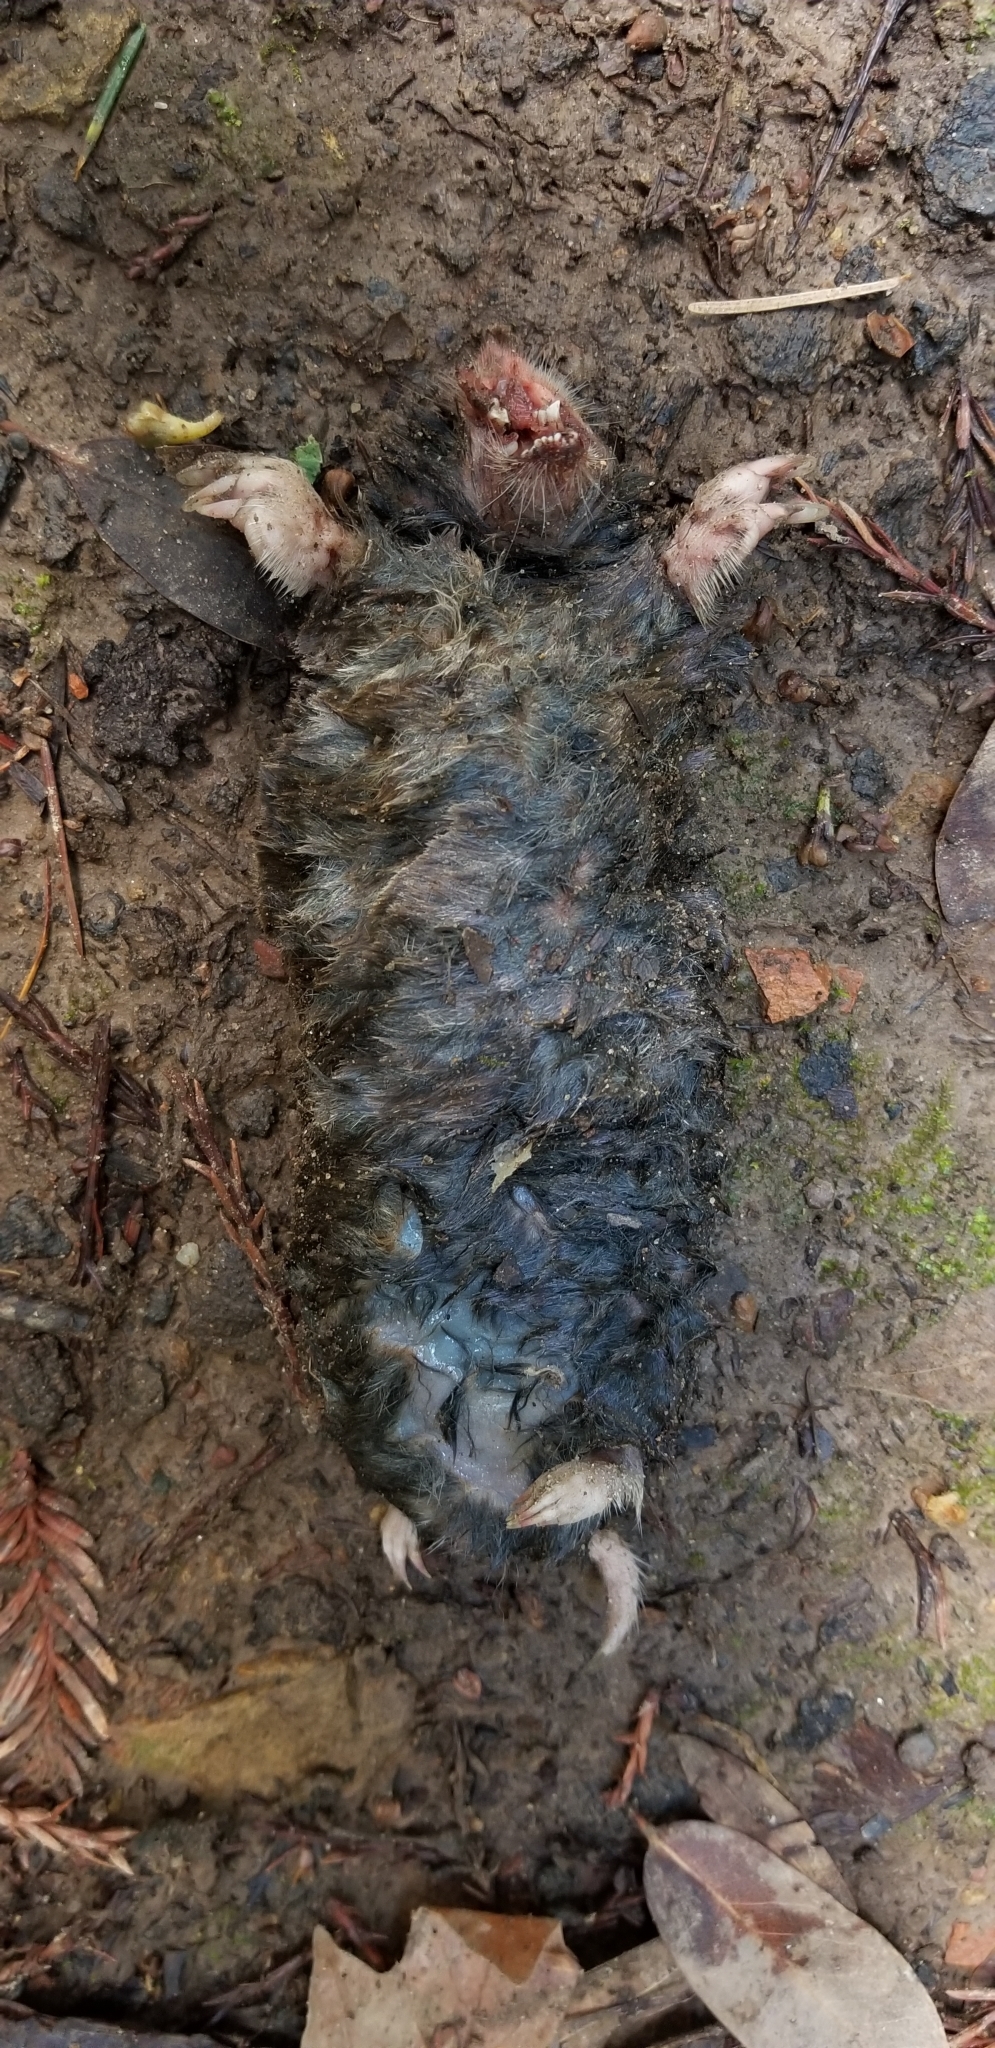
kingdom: Animalia
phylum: Chordata
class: Mammalia
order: Soricomorpha
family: Talpidae
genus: Scapanus
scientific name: Scapanus latimanus
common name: Broad-footed mole
